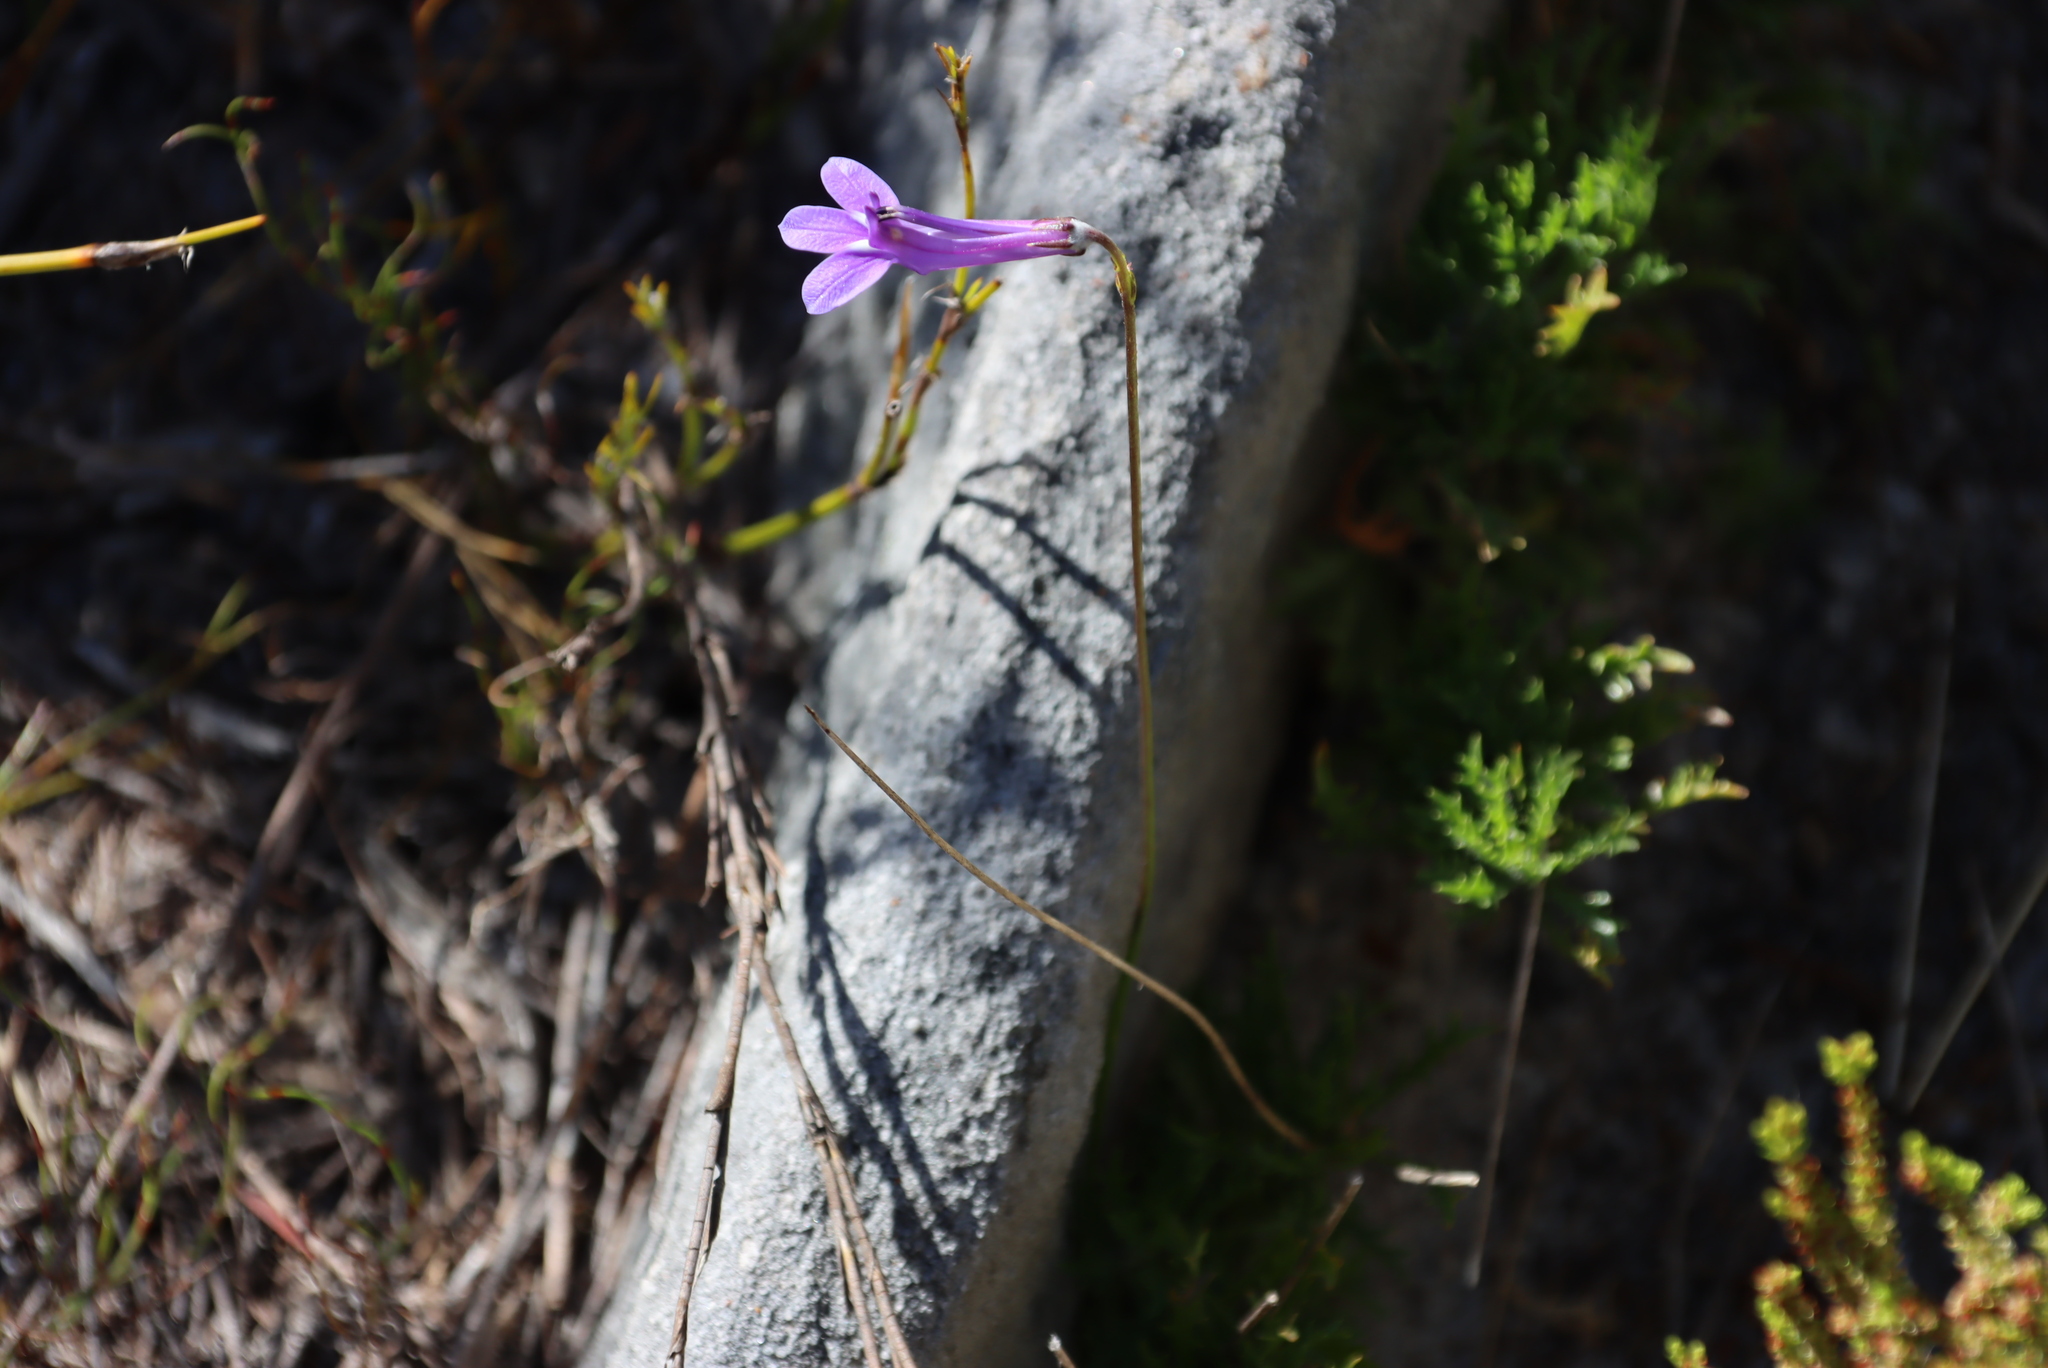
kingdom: Plantae
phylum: Tracheophyta
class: Magnoliopsida
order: Asterales
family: Campanulaceae
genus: Lobelia
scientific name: Lobelia coronopifolia
